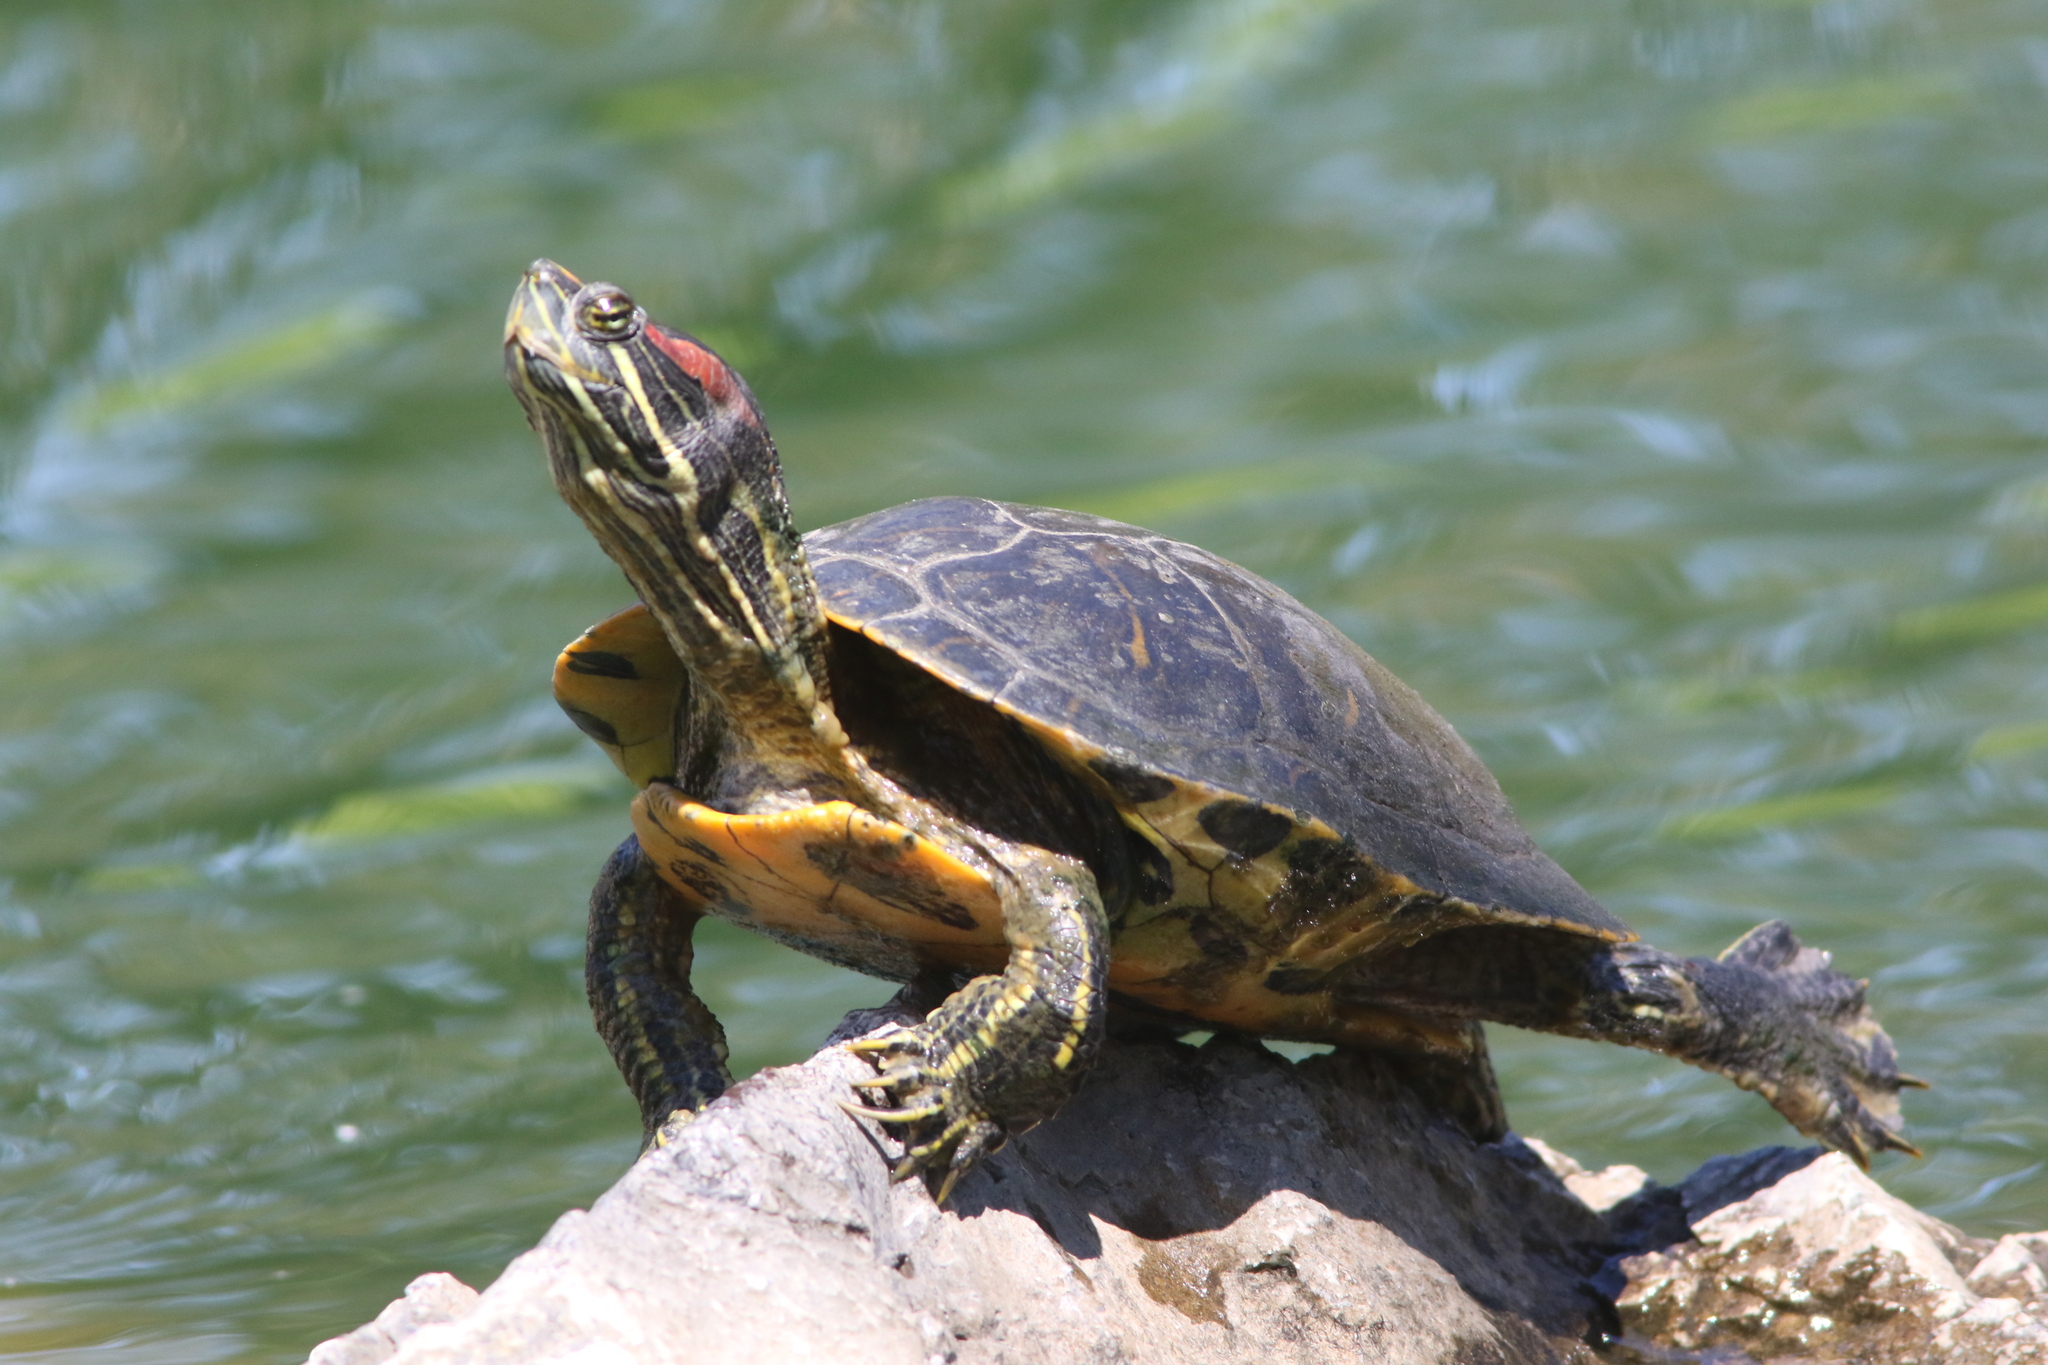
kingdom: Animalia
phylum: Chordata
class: Testudines
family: Emydidae
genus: Trachemys
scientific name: Trachemys scripta
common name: Slider
